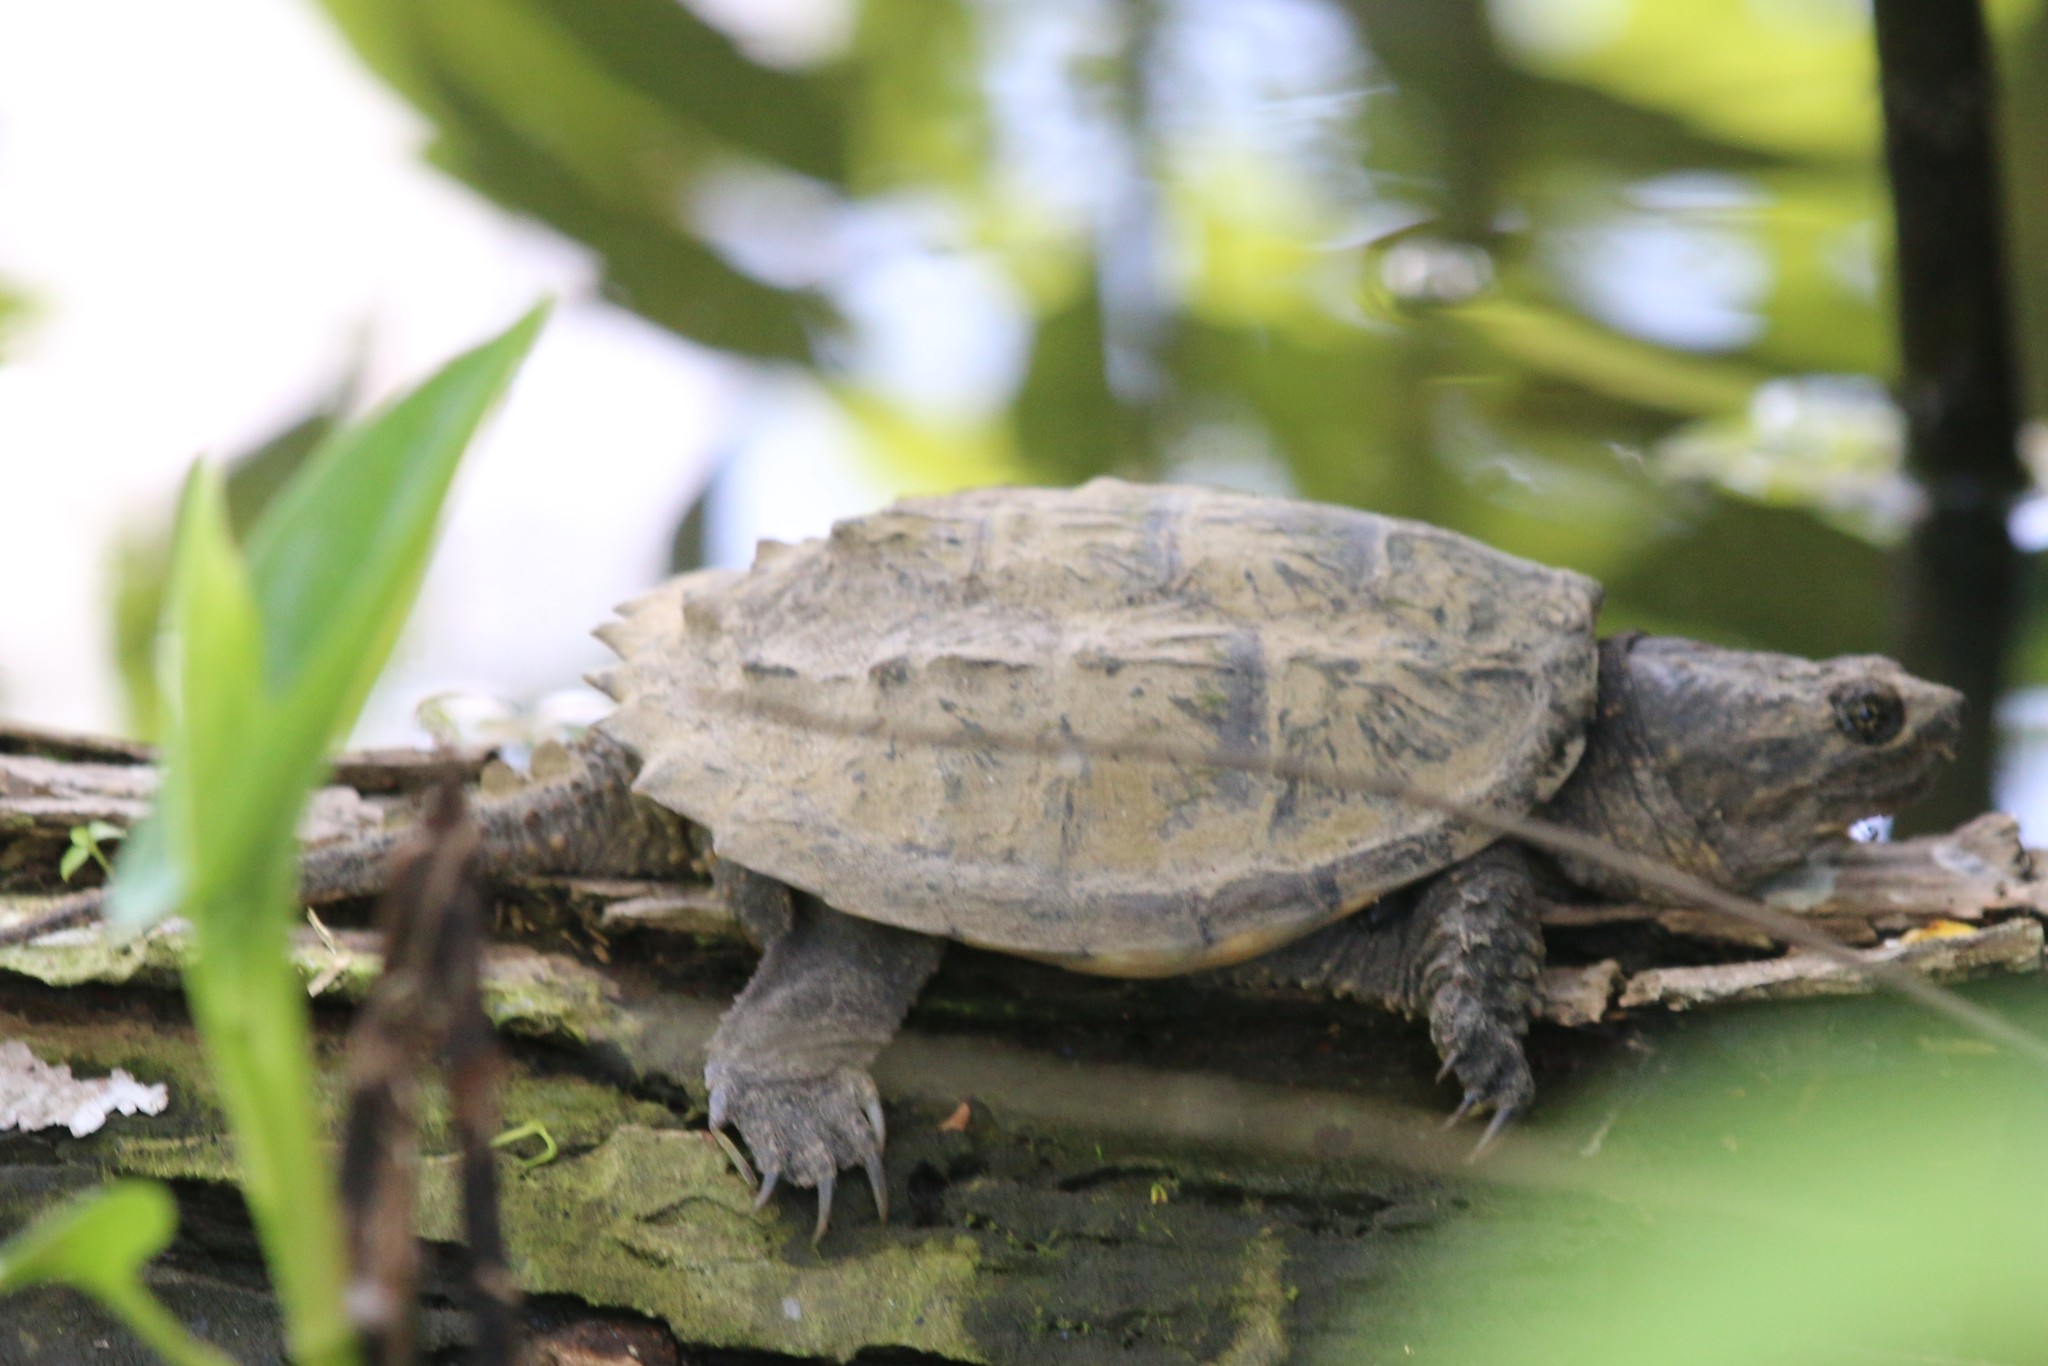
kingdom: Animalia
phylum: Chordata
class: Testudines
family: Chelydridae
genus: Chelydra
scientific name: Chelydra serpentina
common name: Common snapping turtle
